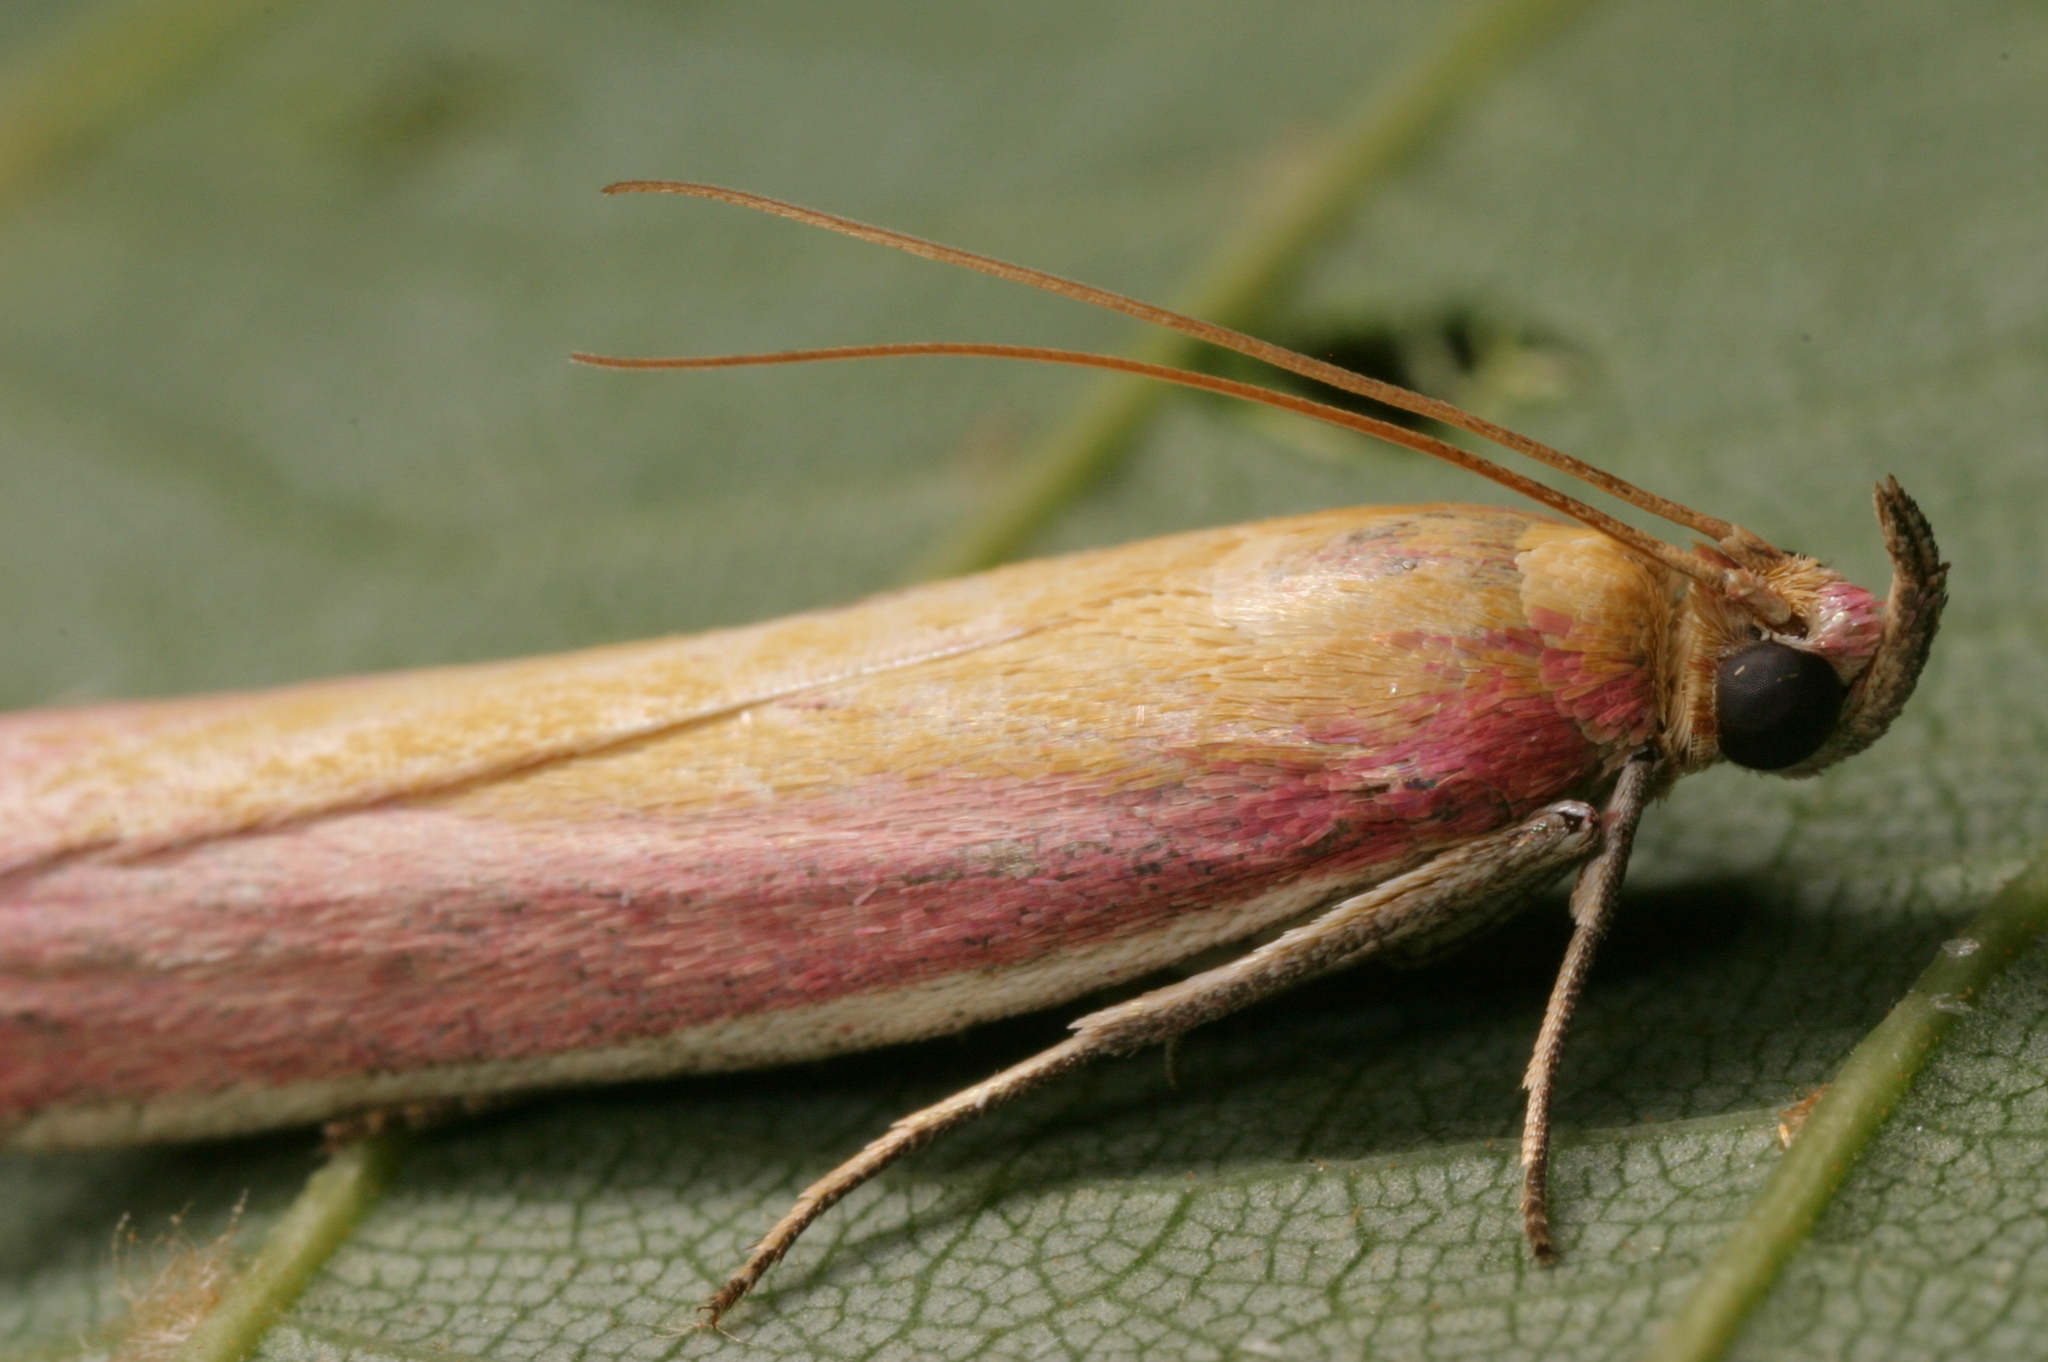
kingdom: Animalia
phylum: Arthropoda
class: Insecta
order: Lepidoptera
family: Pyralidae
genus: Oncocera
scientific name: Oncocera semirubella
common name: Rosy-striped knot-horn
